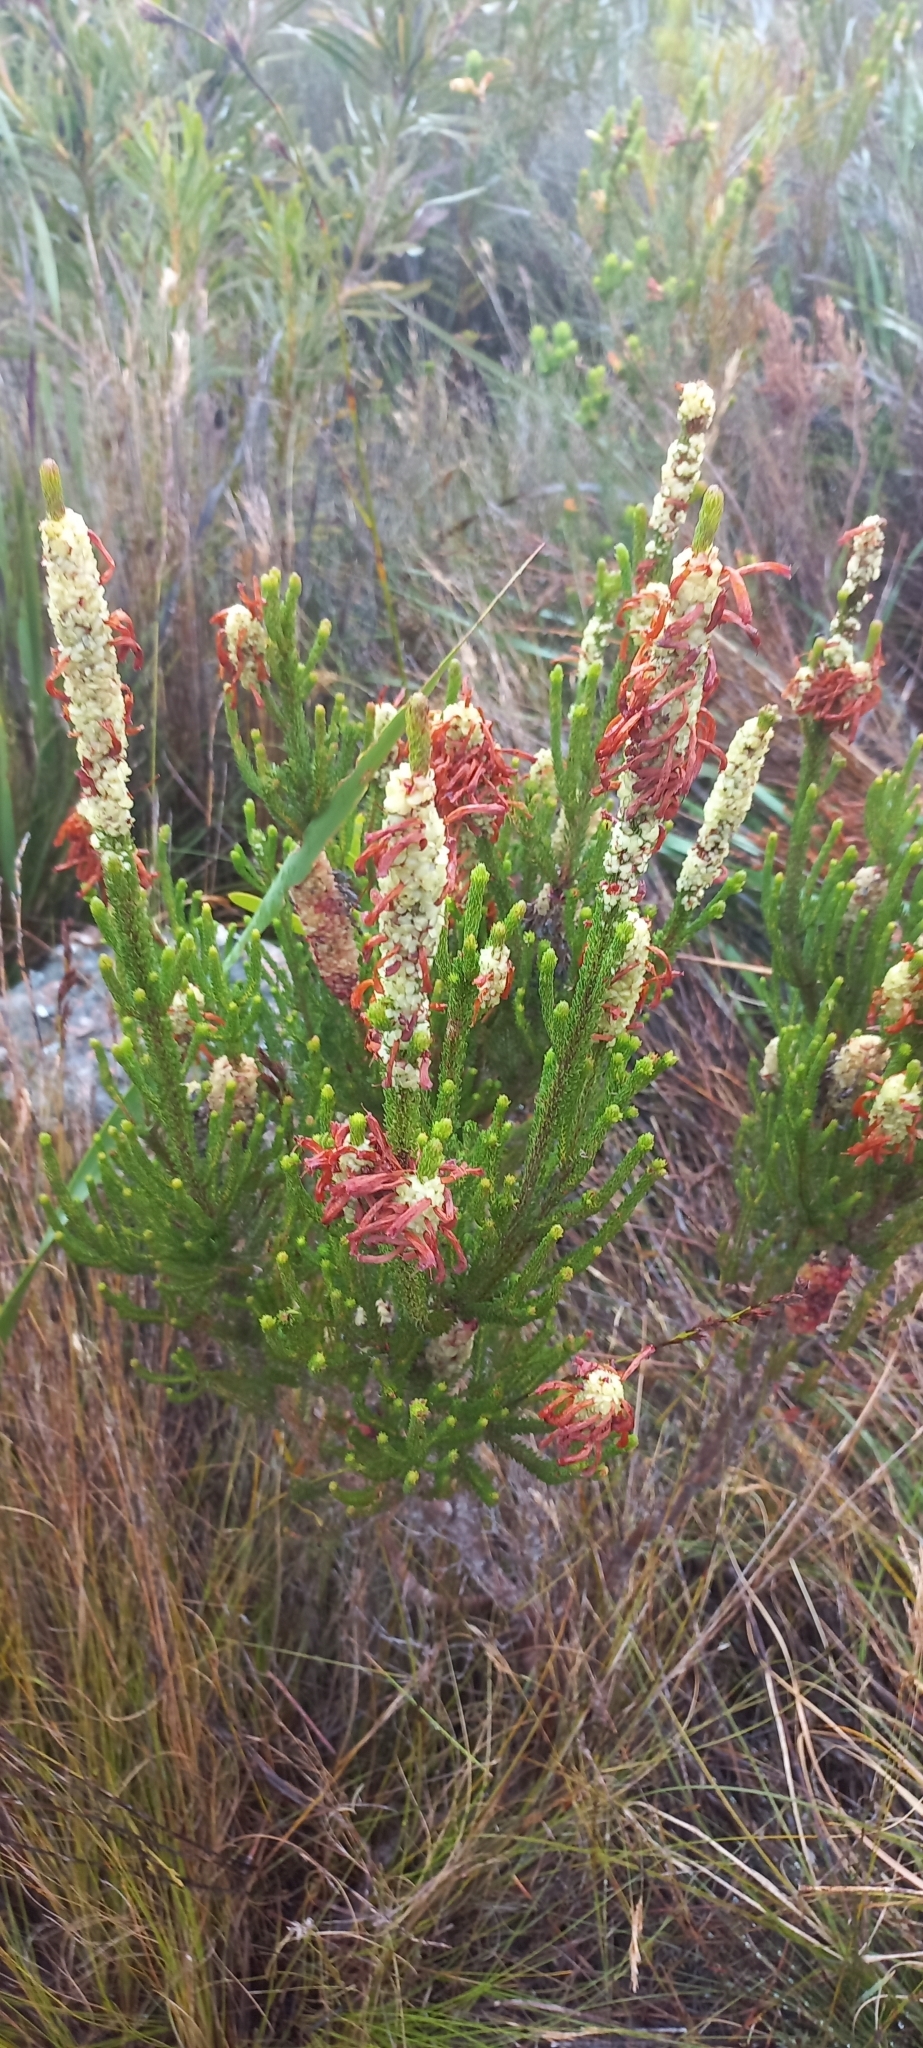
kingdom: Plantae
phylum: Tracheophyta
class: Magnoliopsida
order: Ericales
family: Ericaceae
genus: Erica
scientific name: Erica sessiliflora
